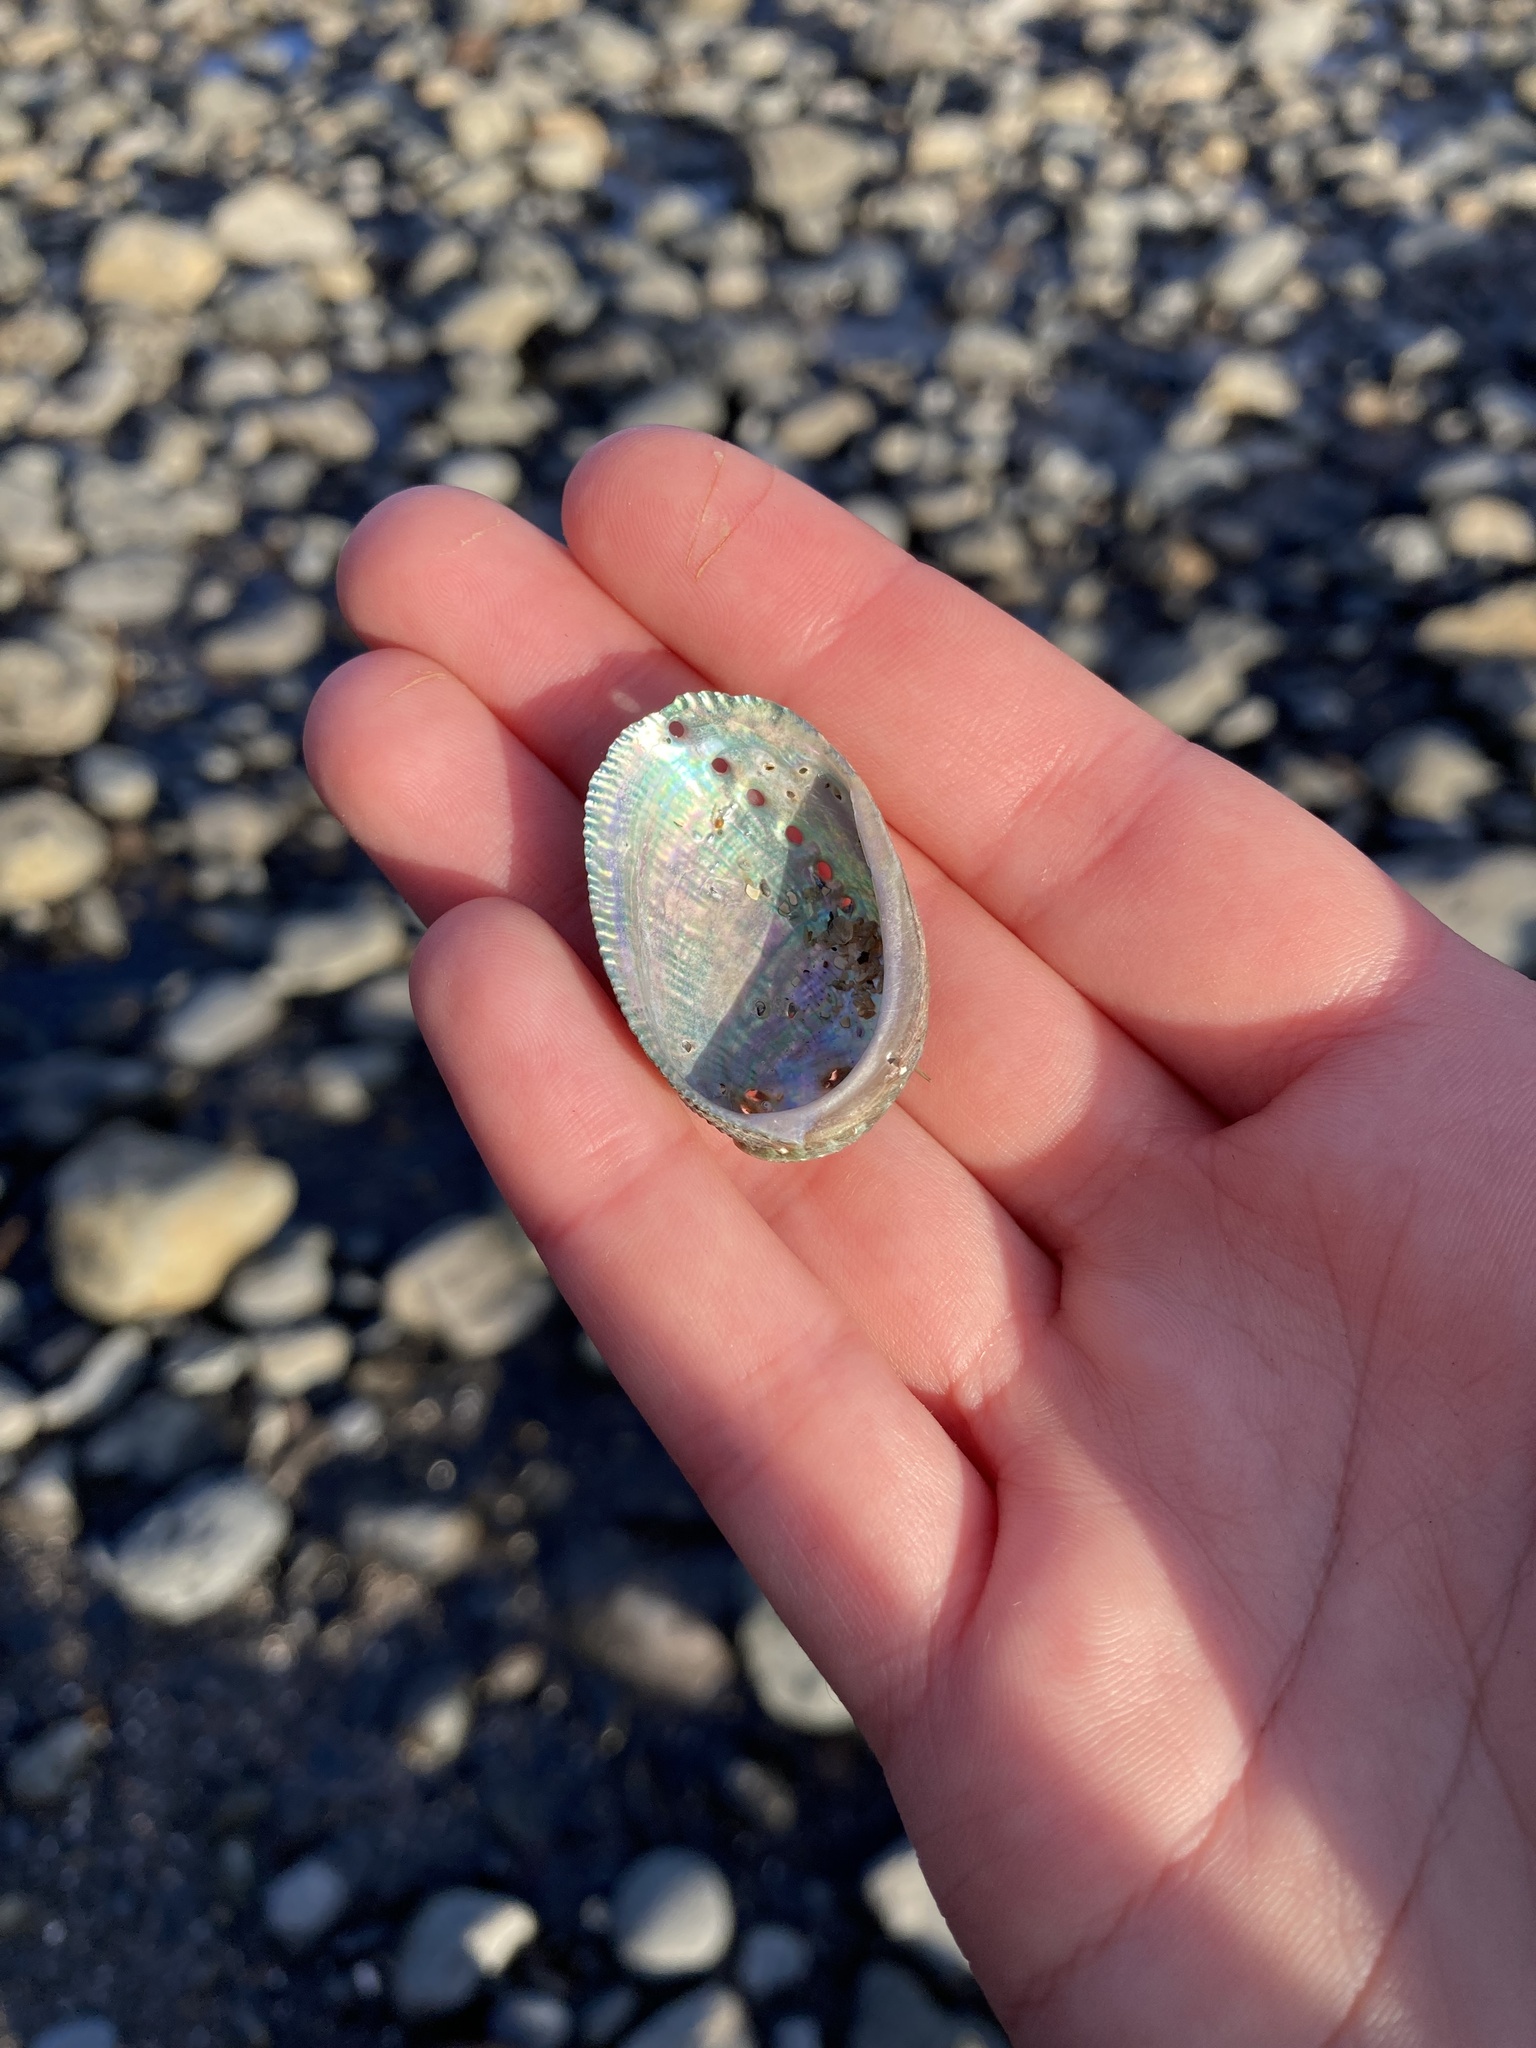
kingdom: Animalia
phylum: Mollusca
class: Gastropoda
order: Lepetellida
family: Haliotidae
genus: Haliotis
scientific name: Haliotis virginea
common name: Whitefoot paua
